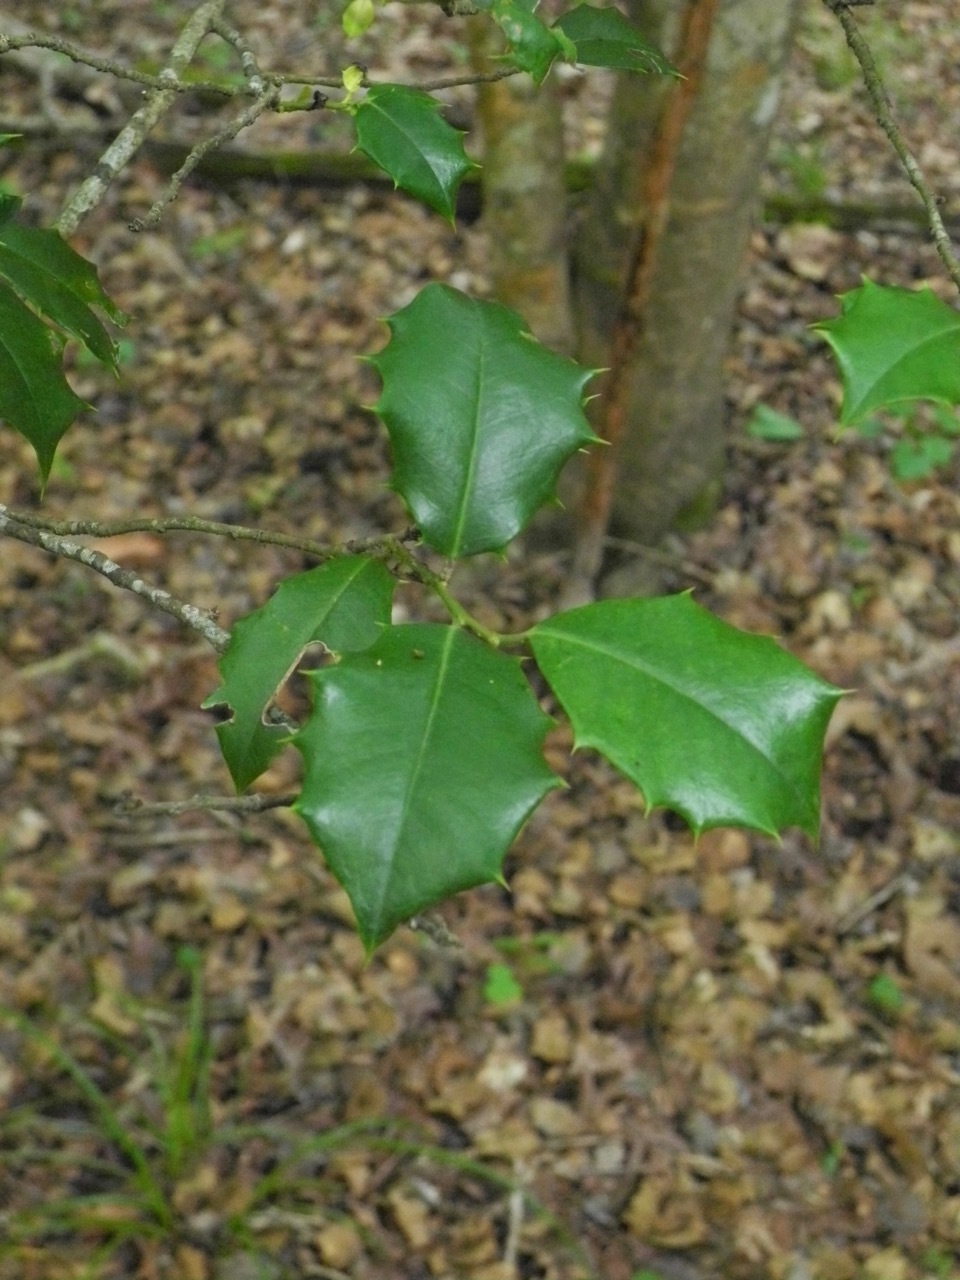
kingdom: Plantae
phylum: Tracheophyta
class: Magnoliopsida
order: Aquifoliales
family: Aquifoliaceae
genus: Ilex
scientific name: Ilex opaca
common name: American holly
